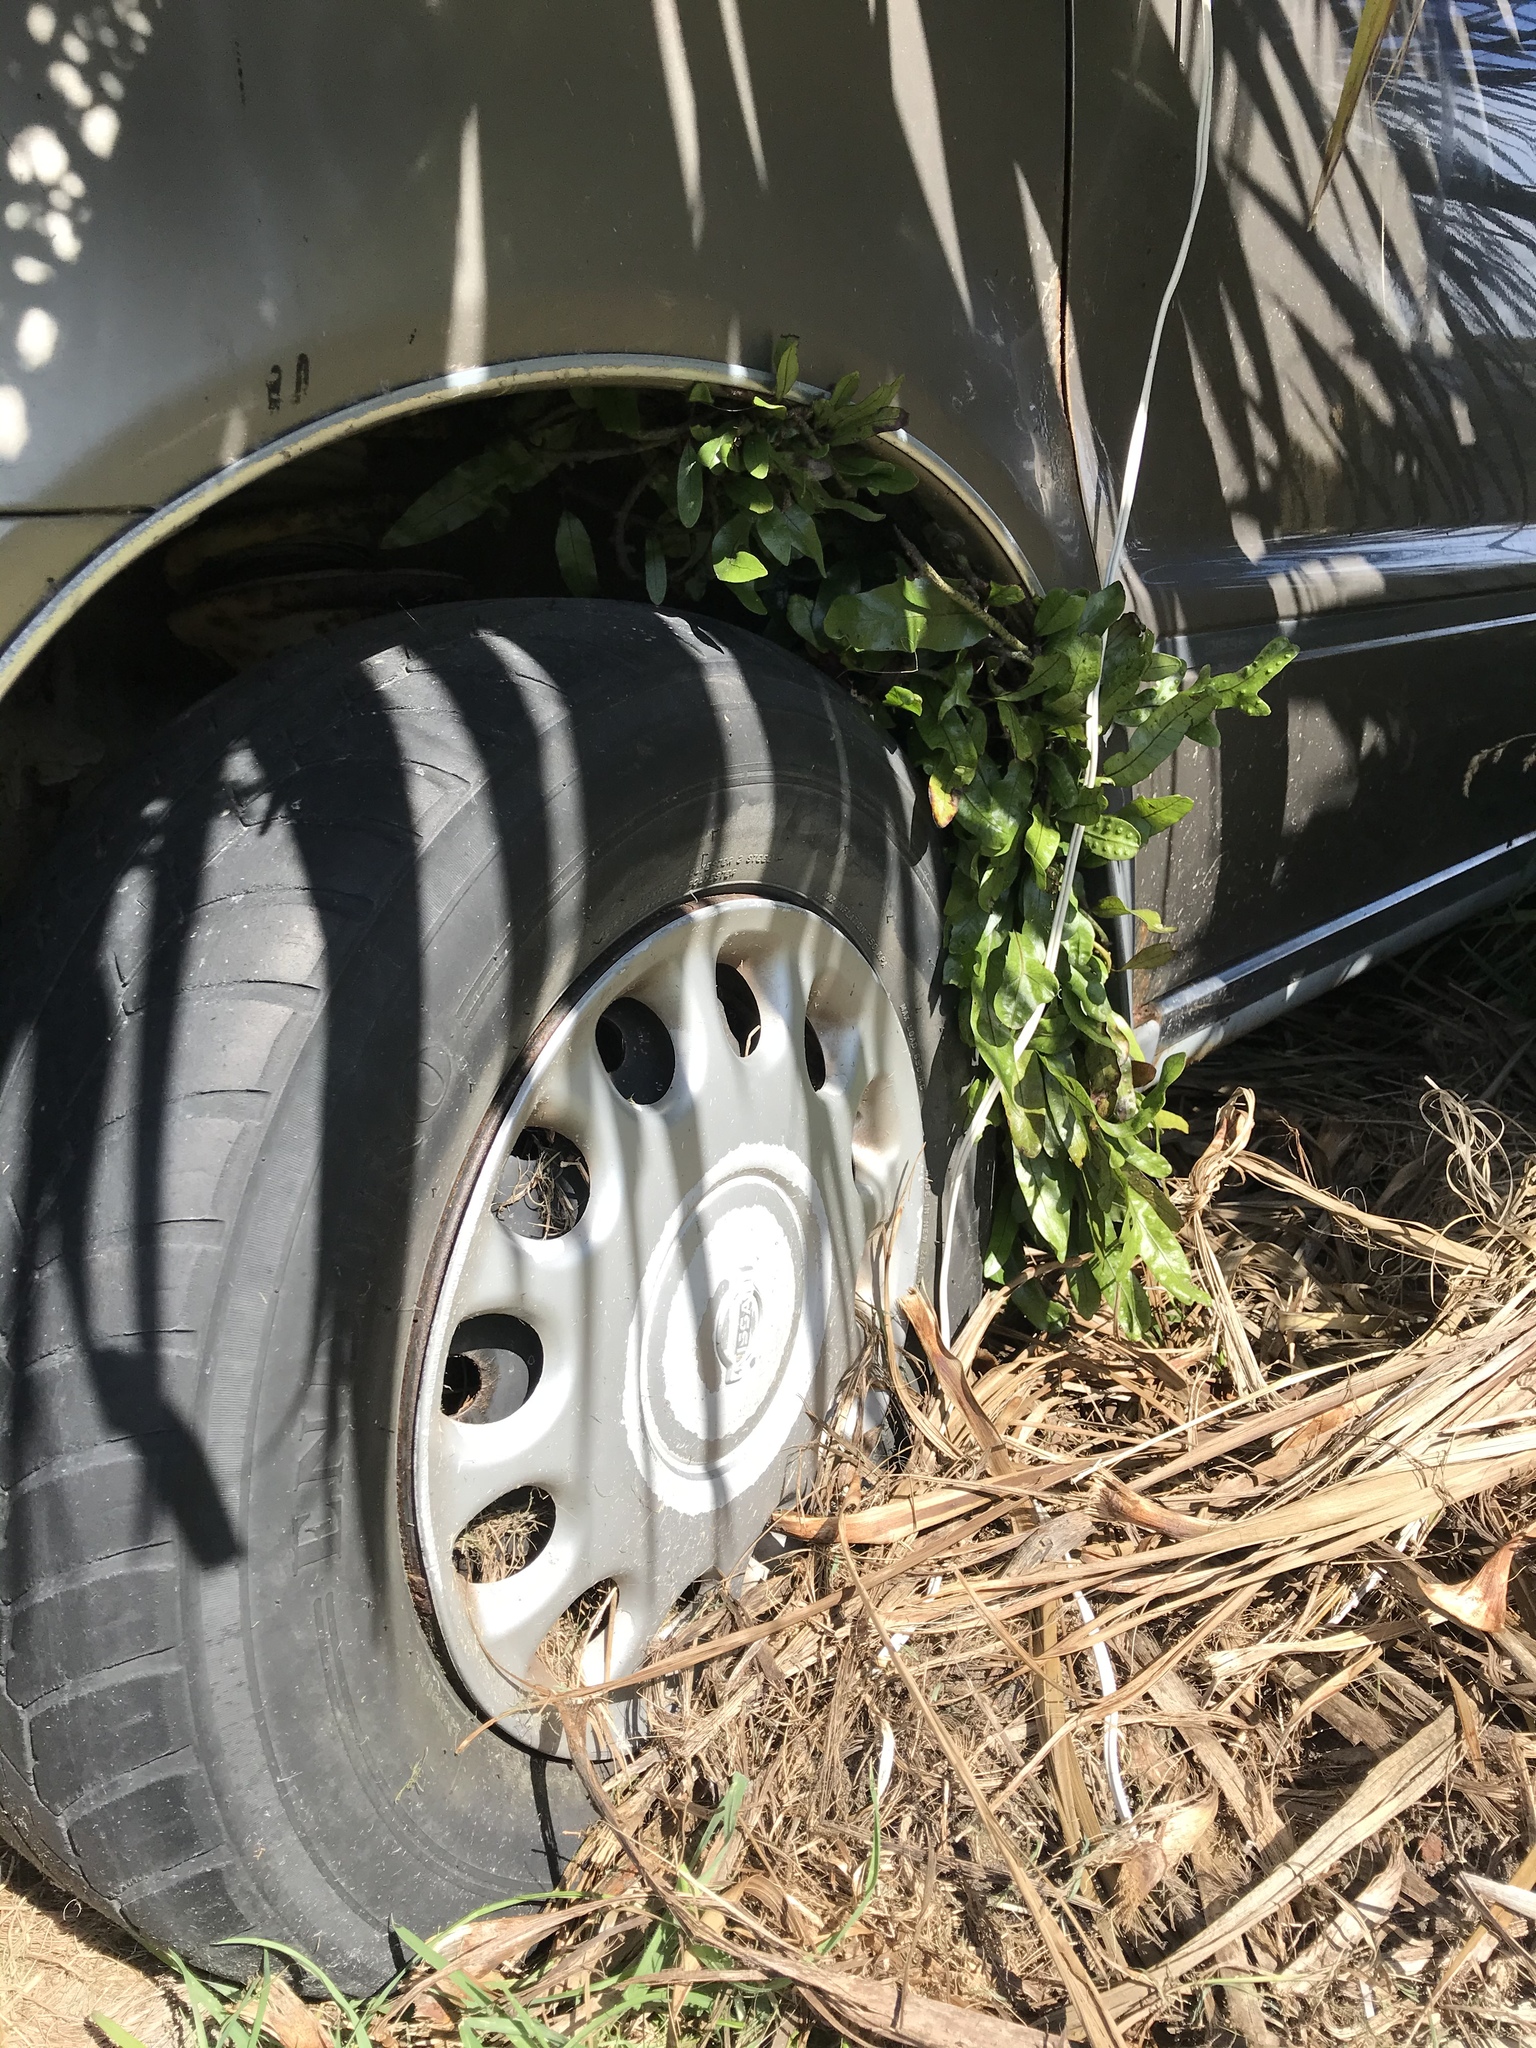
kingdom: Plantae
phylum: Tracheophyta
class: Polypodiopsida
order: Polypodiales
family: Polypodiaceae
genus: Lecanopteris
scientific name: Lecanopteris pustulata
